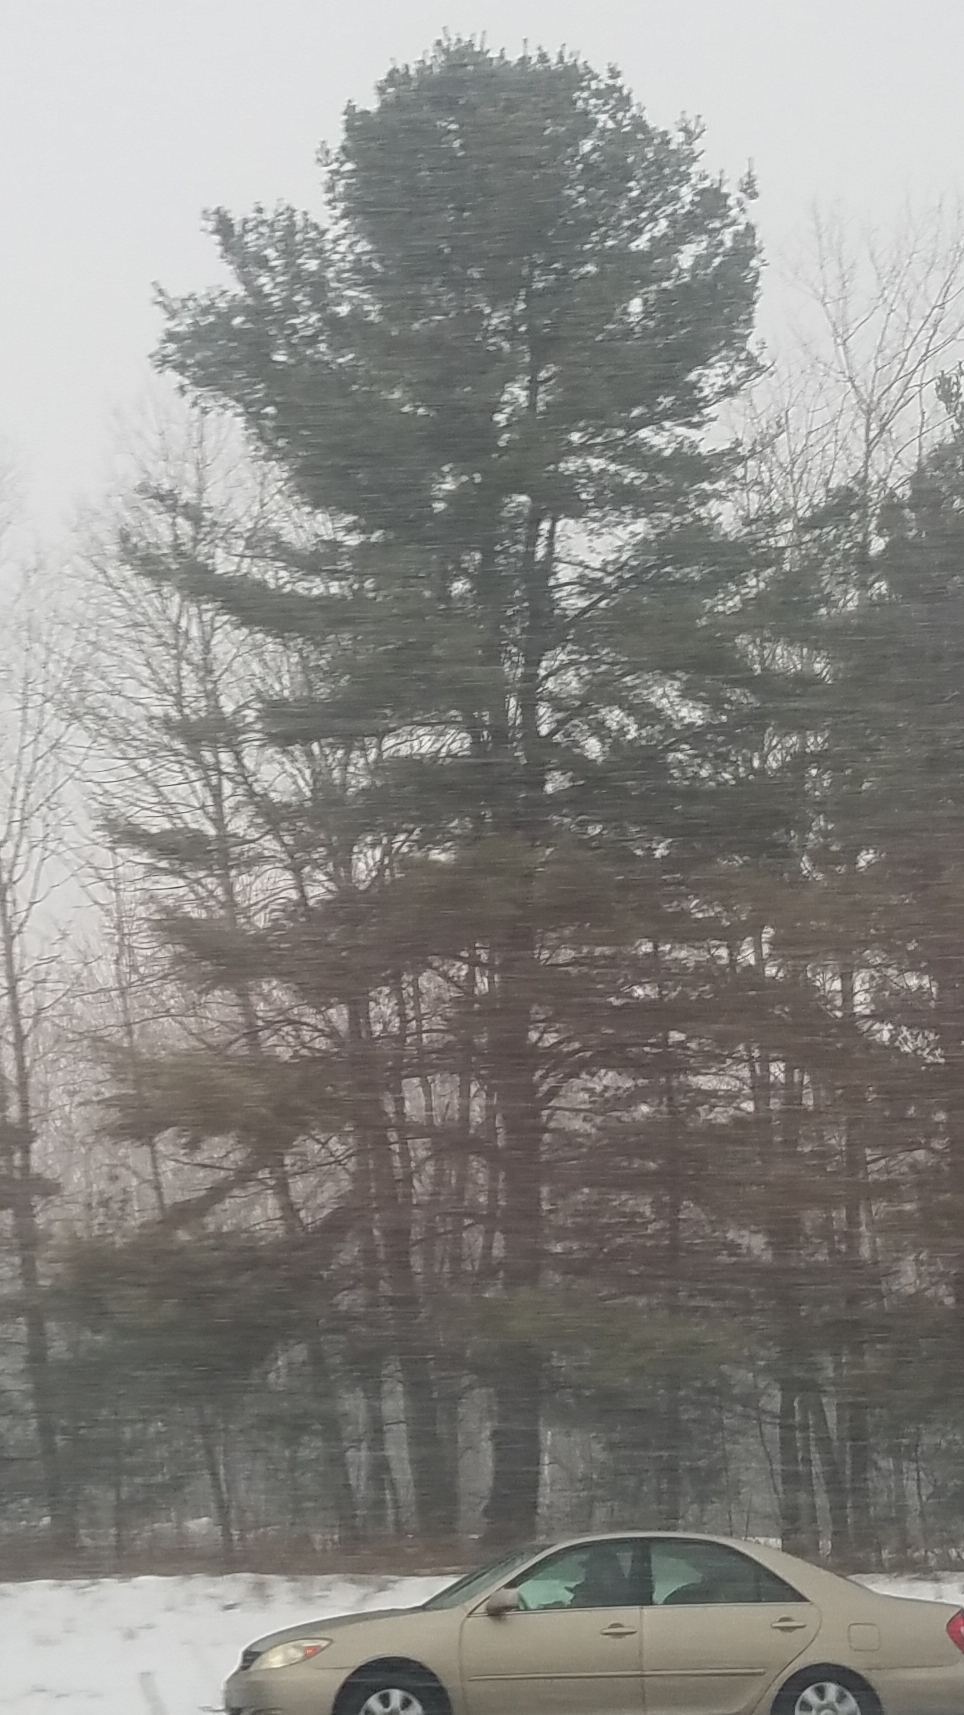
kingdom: Plantae
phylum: Tracheophyta
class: Pinopsida
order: Pinales
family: Pinaceae
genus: Pinus
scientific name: Pinus strobus
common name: Weymouth pine
